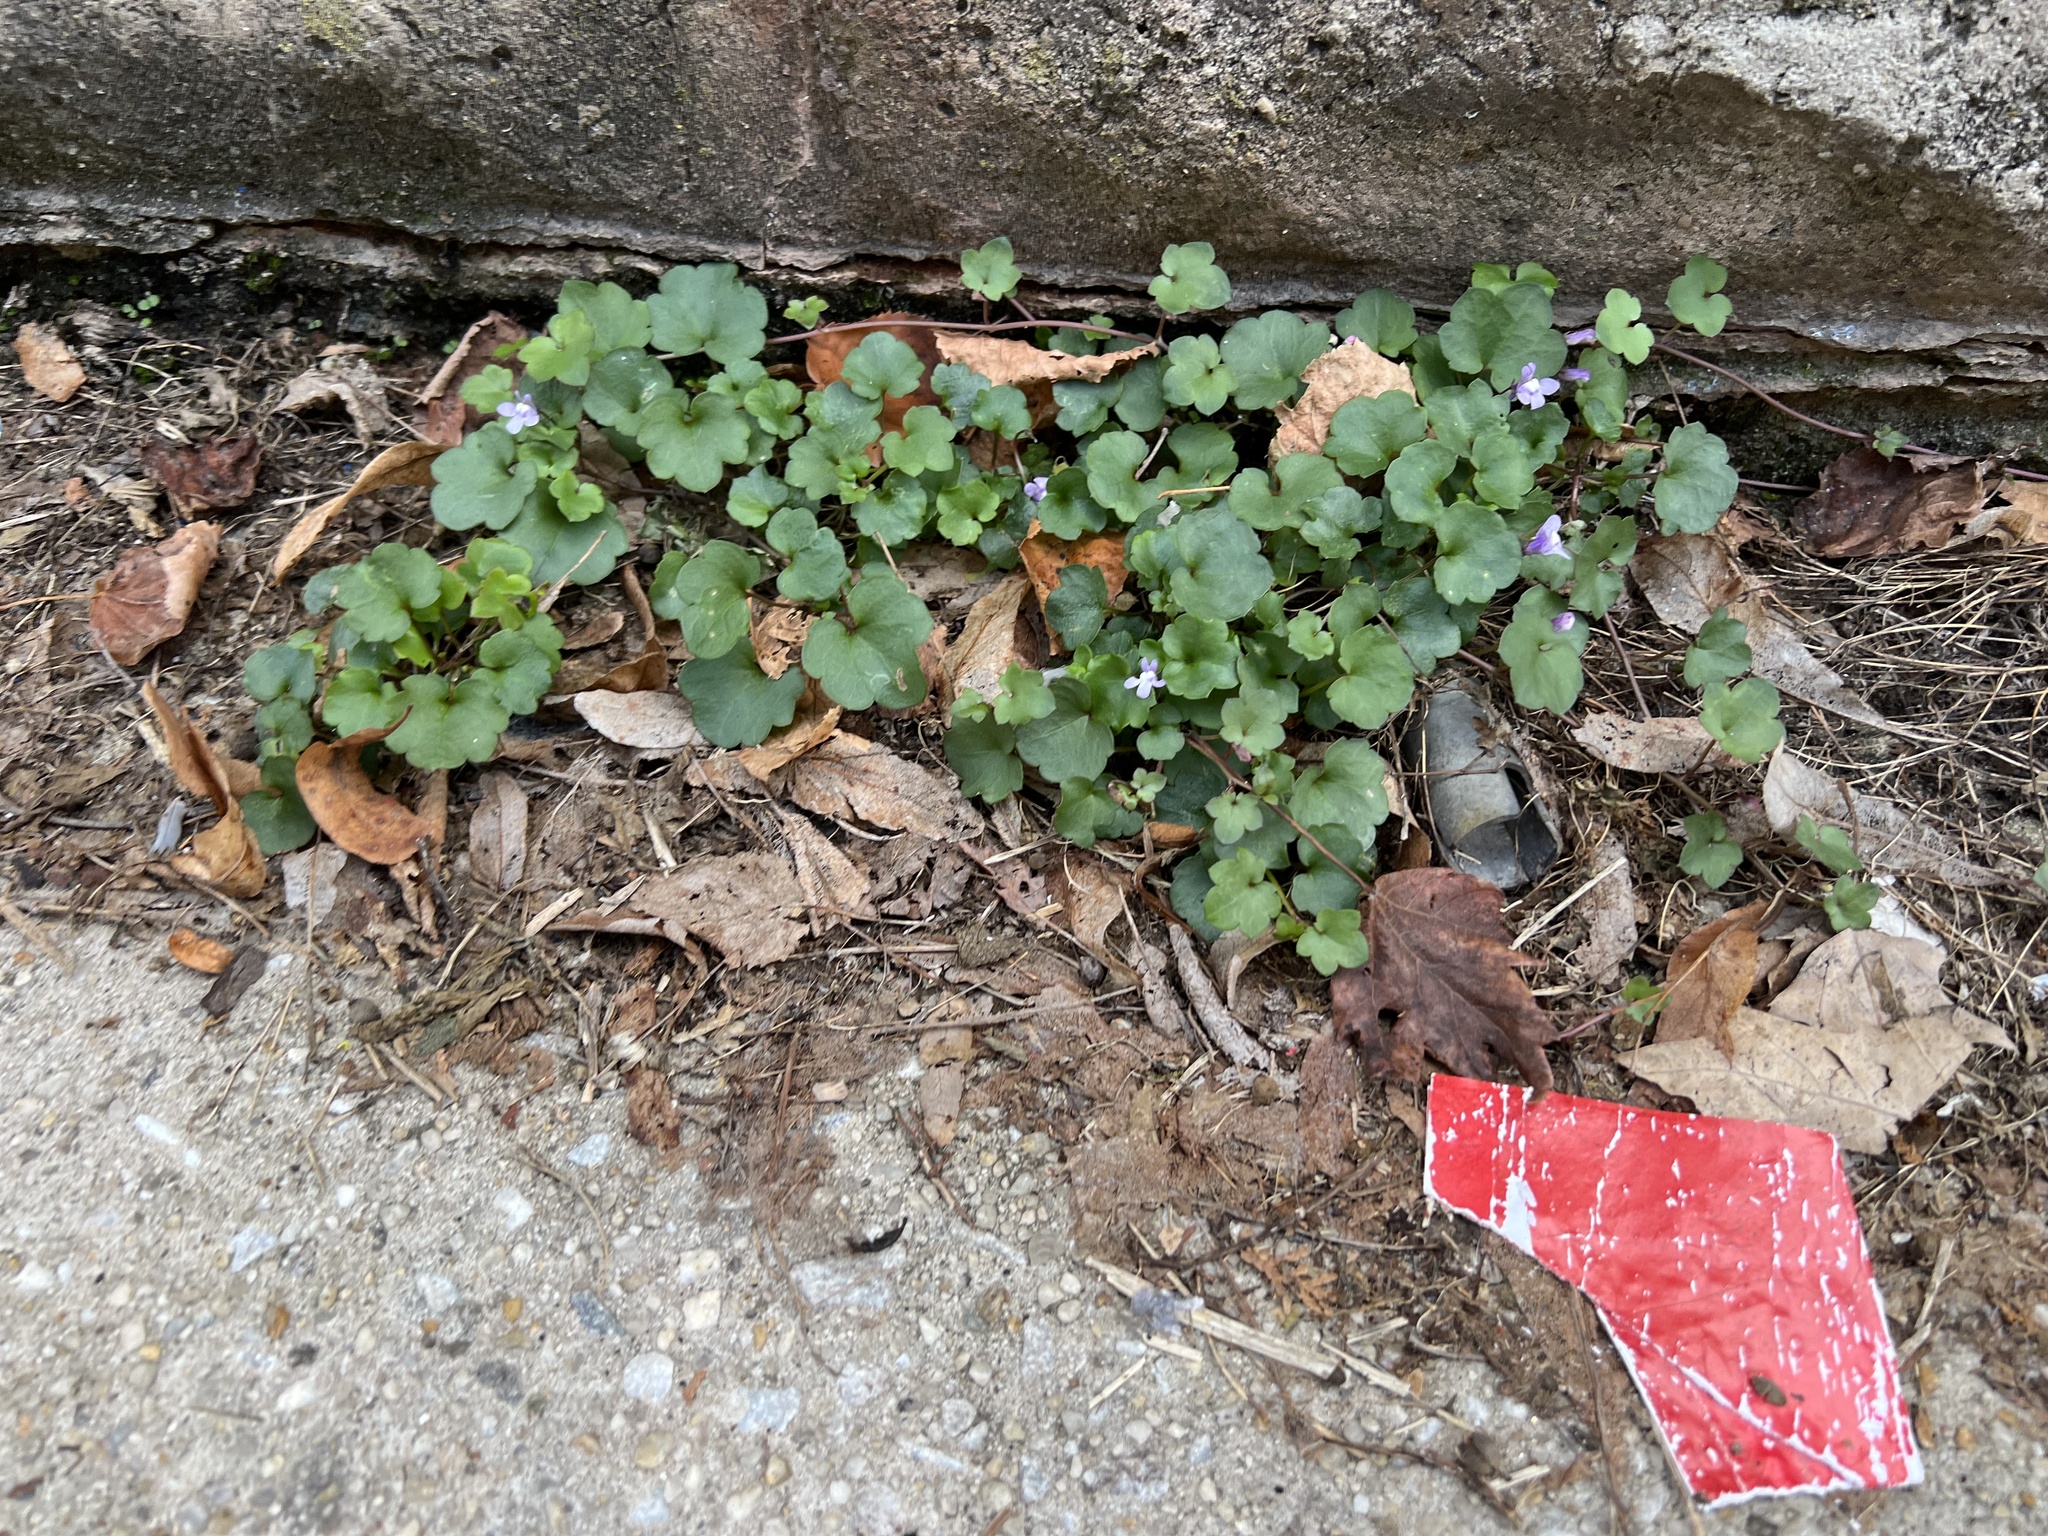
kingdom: Plantae
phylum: Tracheophyta
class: Magnoliopsida
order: Lamiales
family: Plantaginaceae
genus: Cymbalaria
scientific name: Cymbalaria muralis
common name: Ivy-leaved toadflax
